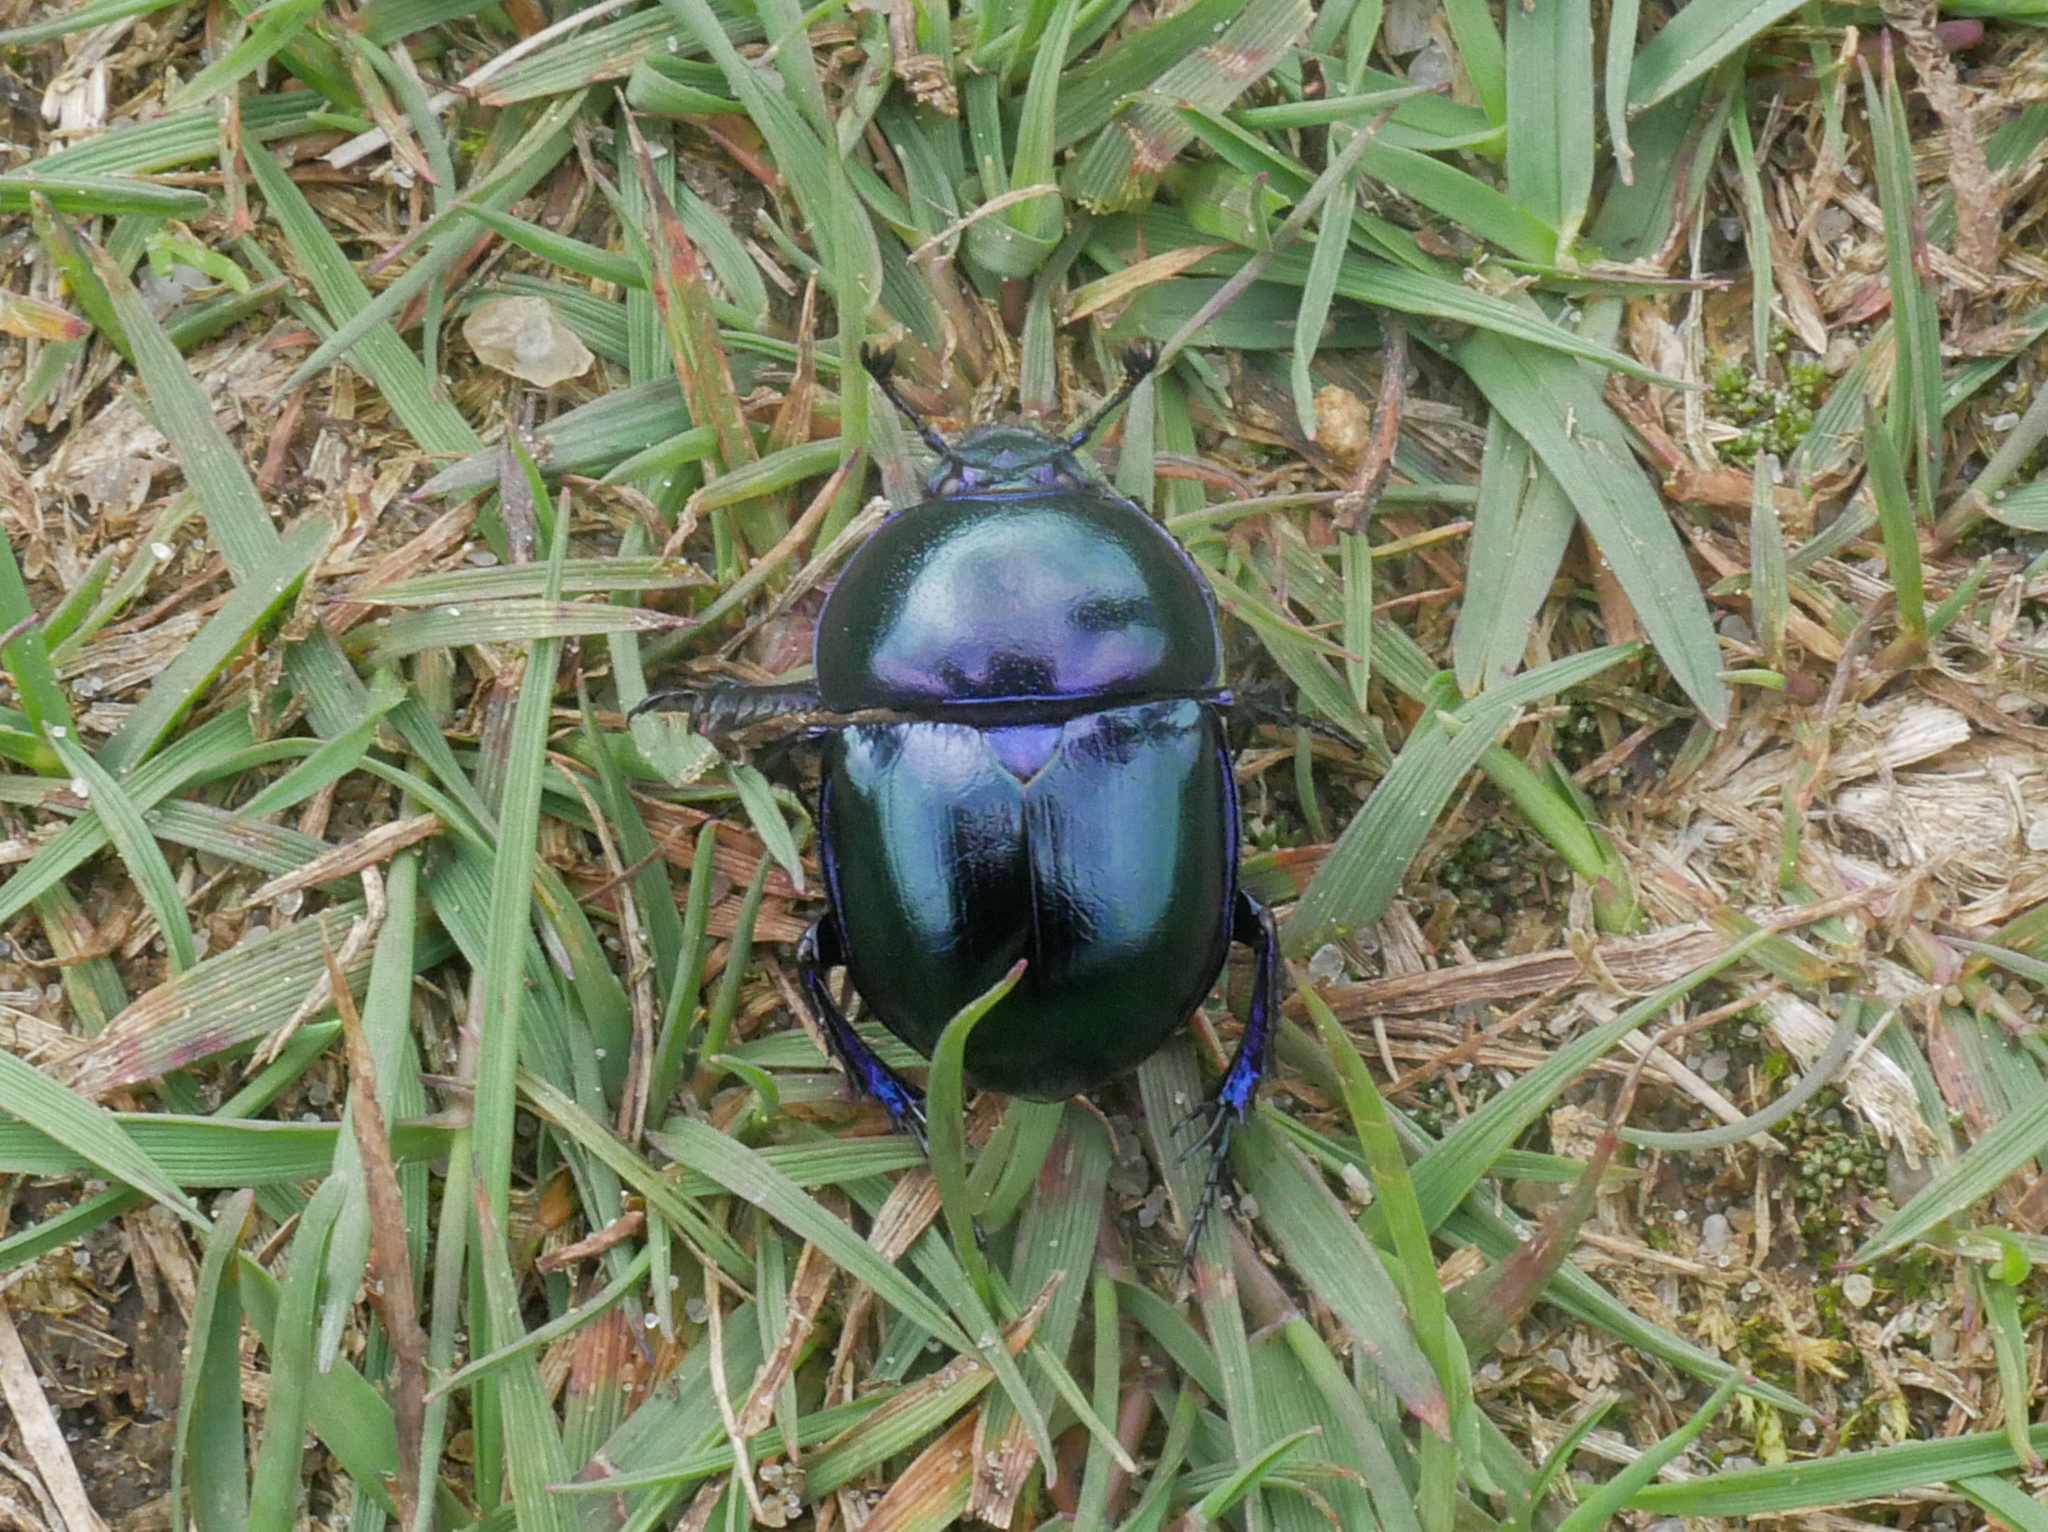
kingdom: Animalia
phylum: Arthropoda
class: Insecta
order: Coleoptera
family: Geotrupidae
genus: Trypocopris
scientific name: Trypocopris vernalis
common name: Spring dumbledor
